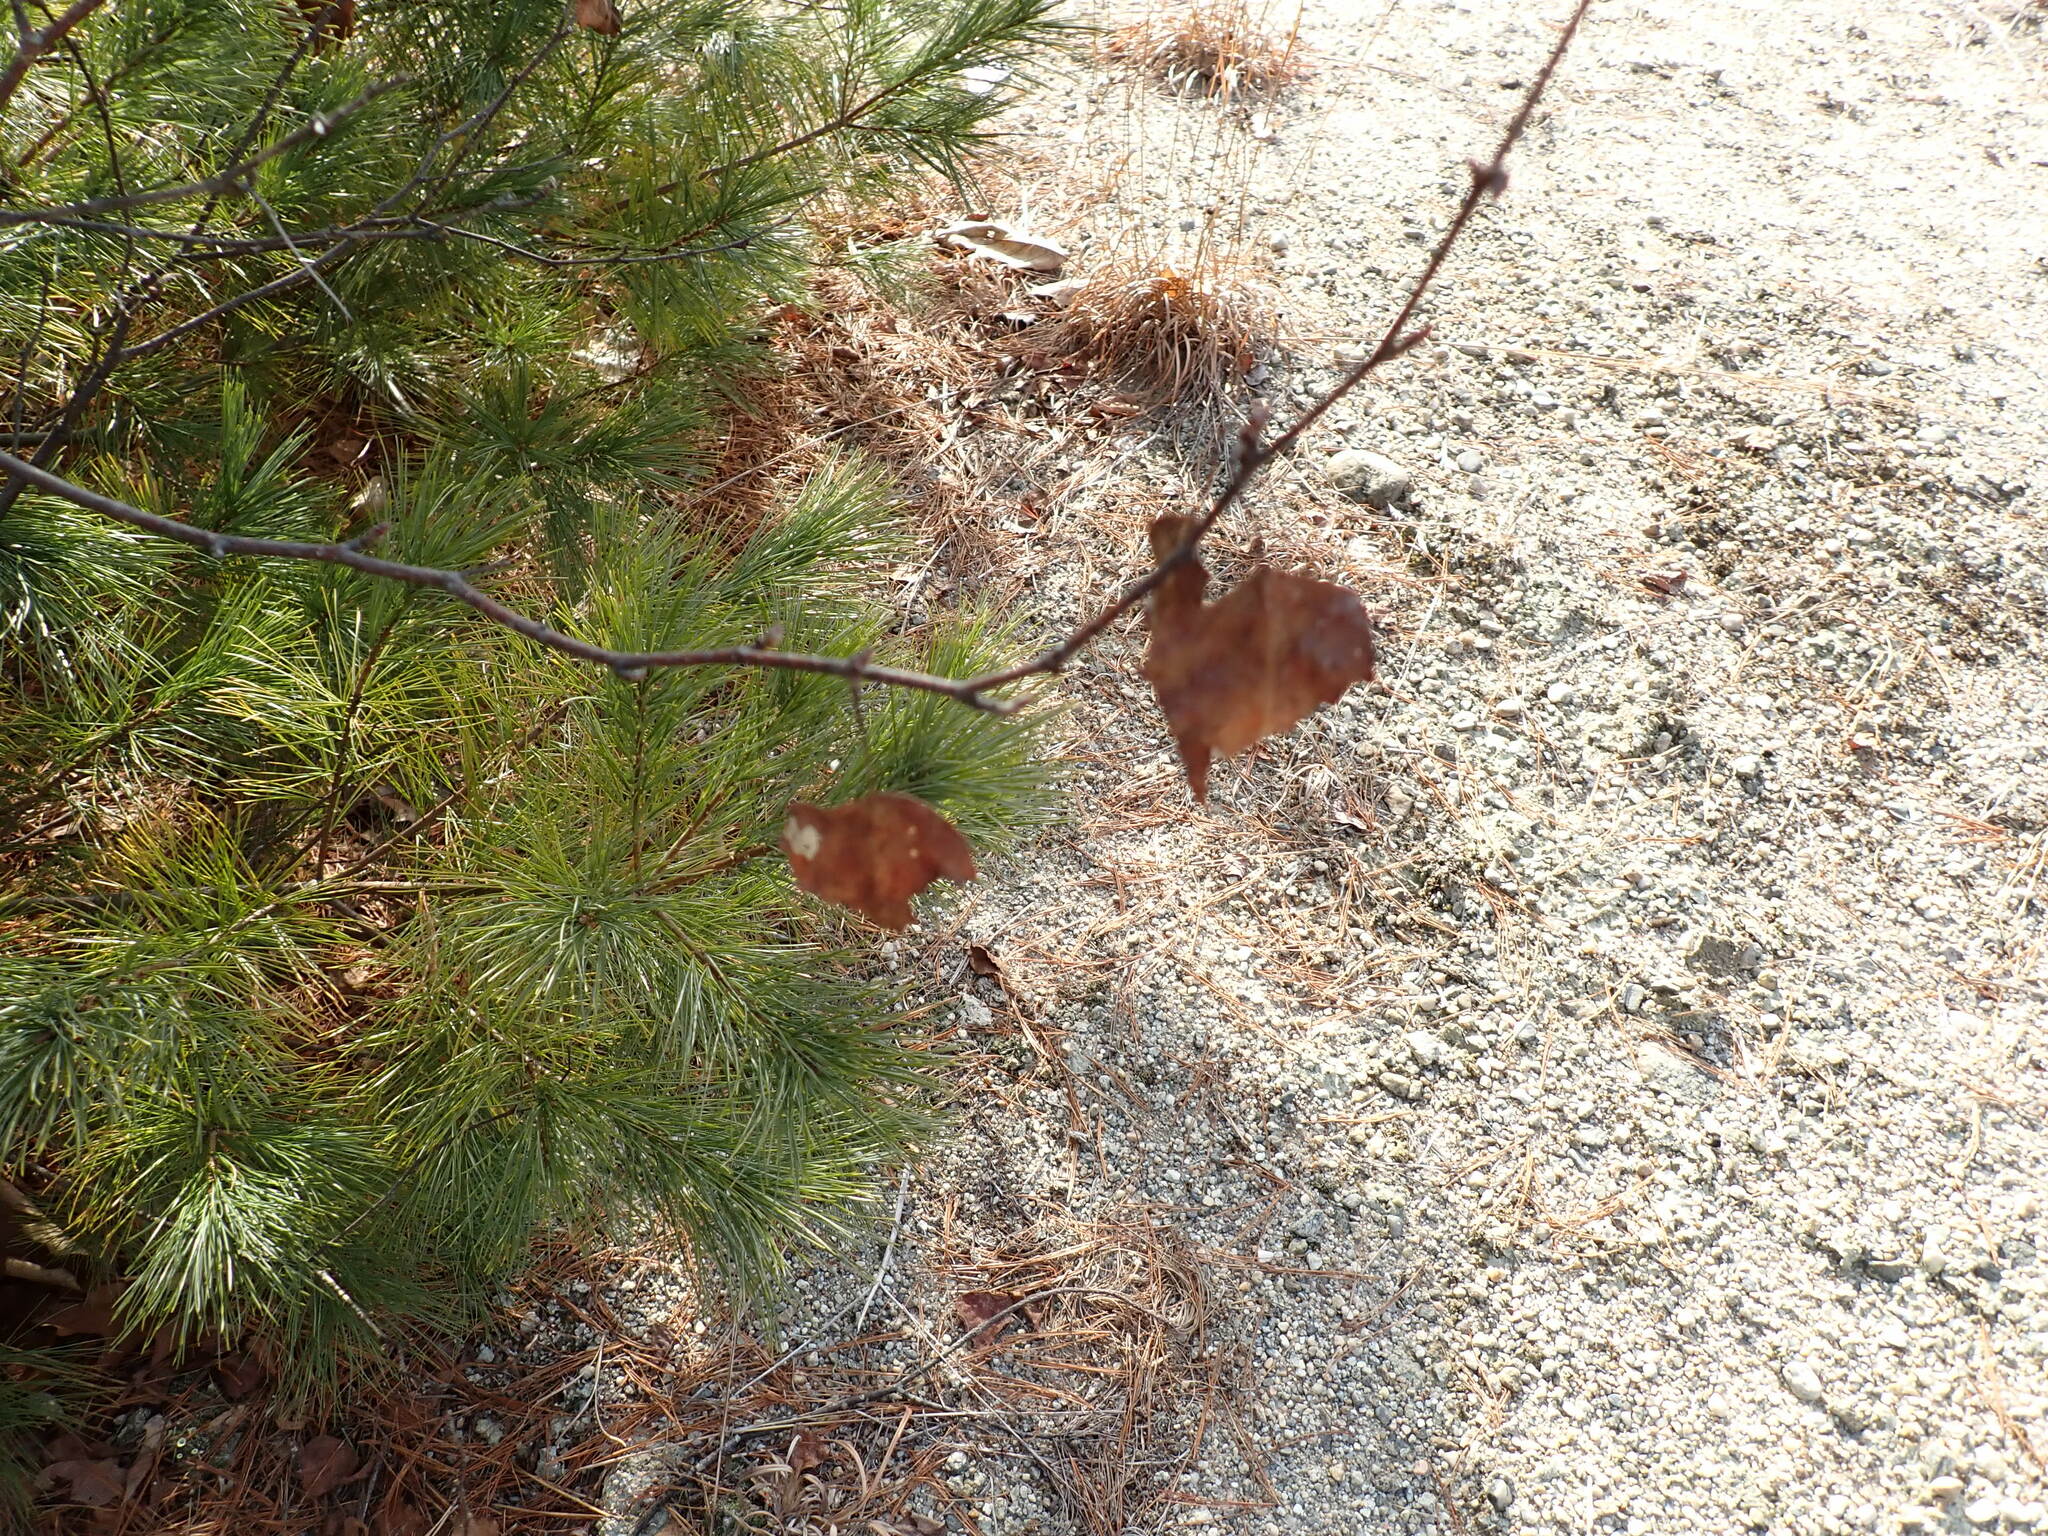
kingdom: Plantae
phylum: Tracheophyta
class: Magnoliopsida
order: Fagales
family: Betulaceae
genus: Betula
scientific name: Betula populifolia
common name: Fire birch
